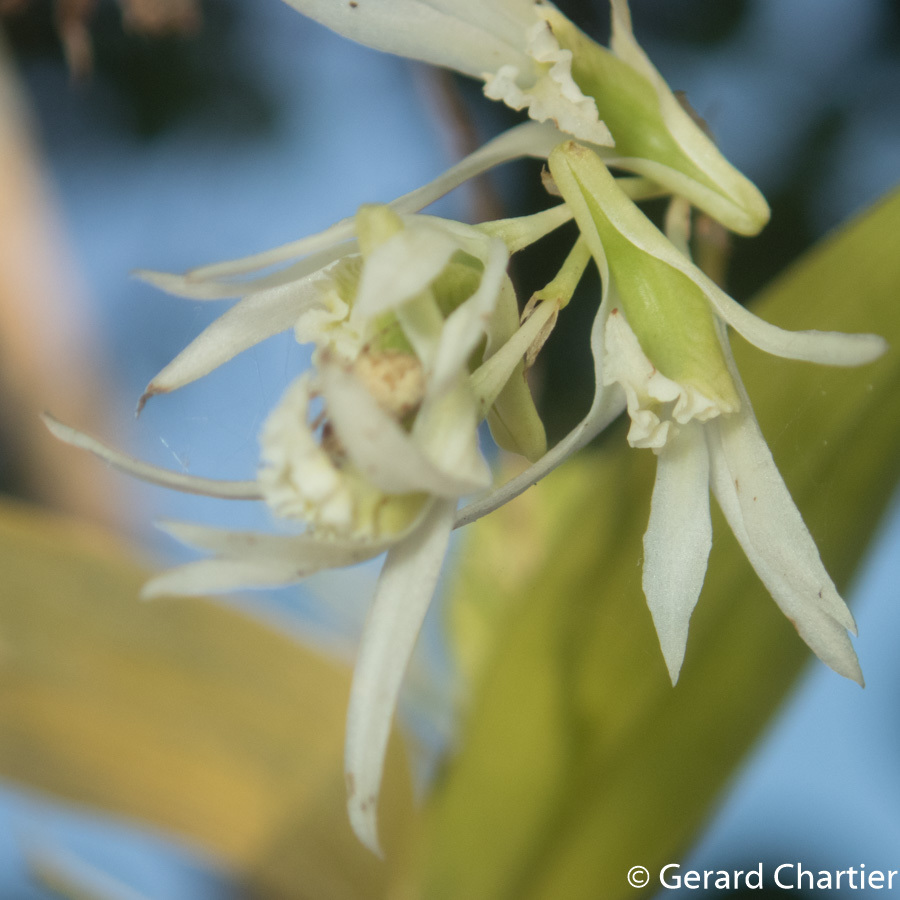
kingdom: Plantae
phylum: Tracheophyta
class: Liliopsida
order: Asparagales
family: Orchidaceae
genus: Dendrobium
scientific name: Dendrobium kratense
